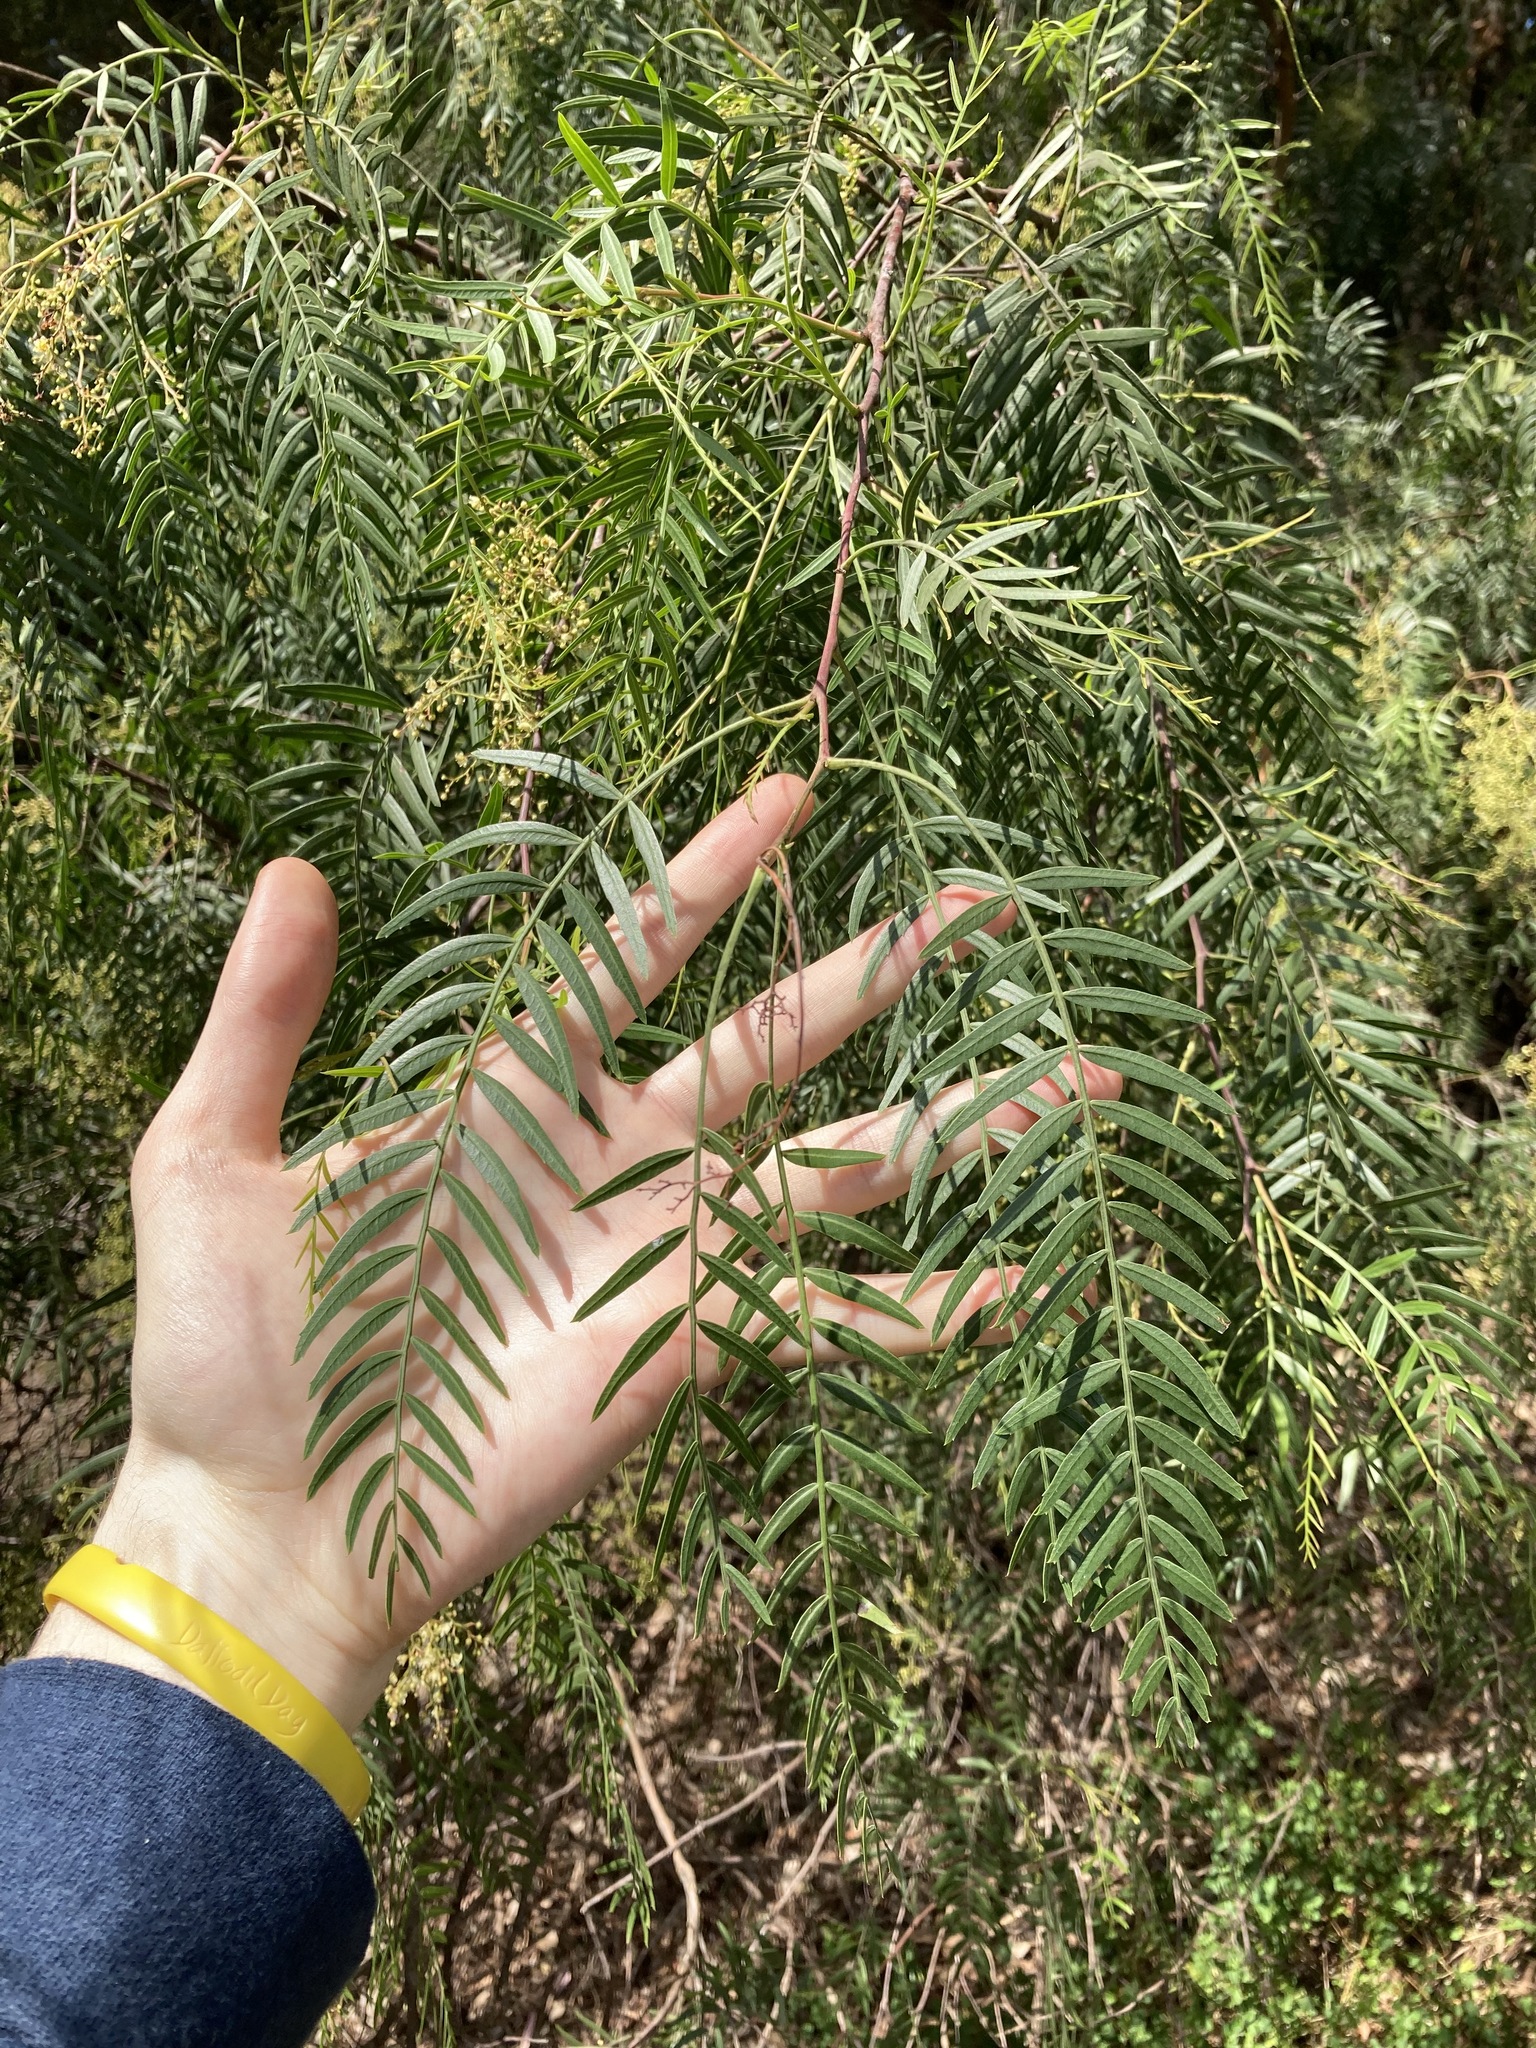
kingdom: Plantae
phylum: Tracheophyta
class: Magnoliopsida
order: Sapindales
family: Anacardiaceae
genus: Schinus
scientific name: Schinus molle
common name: Peruvian peppertree
